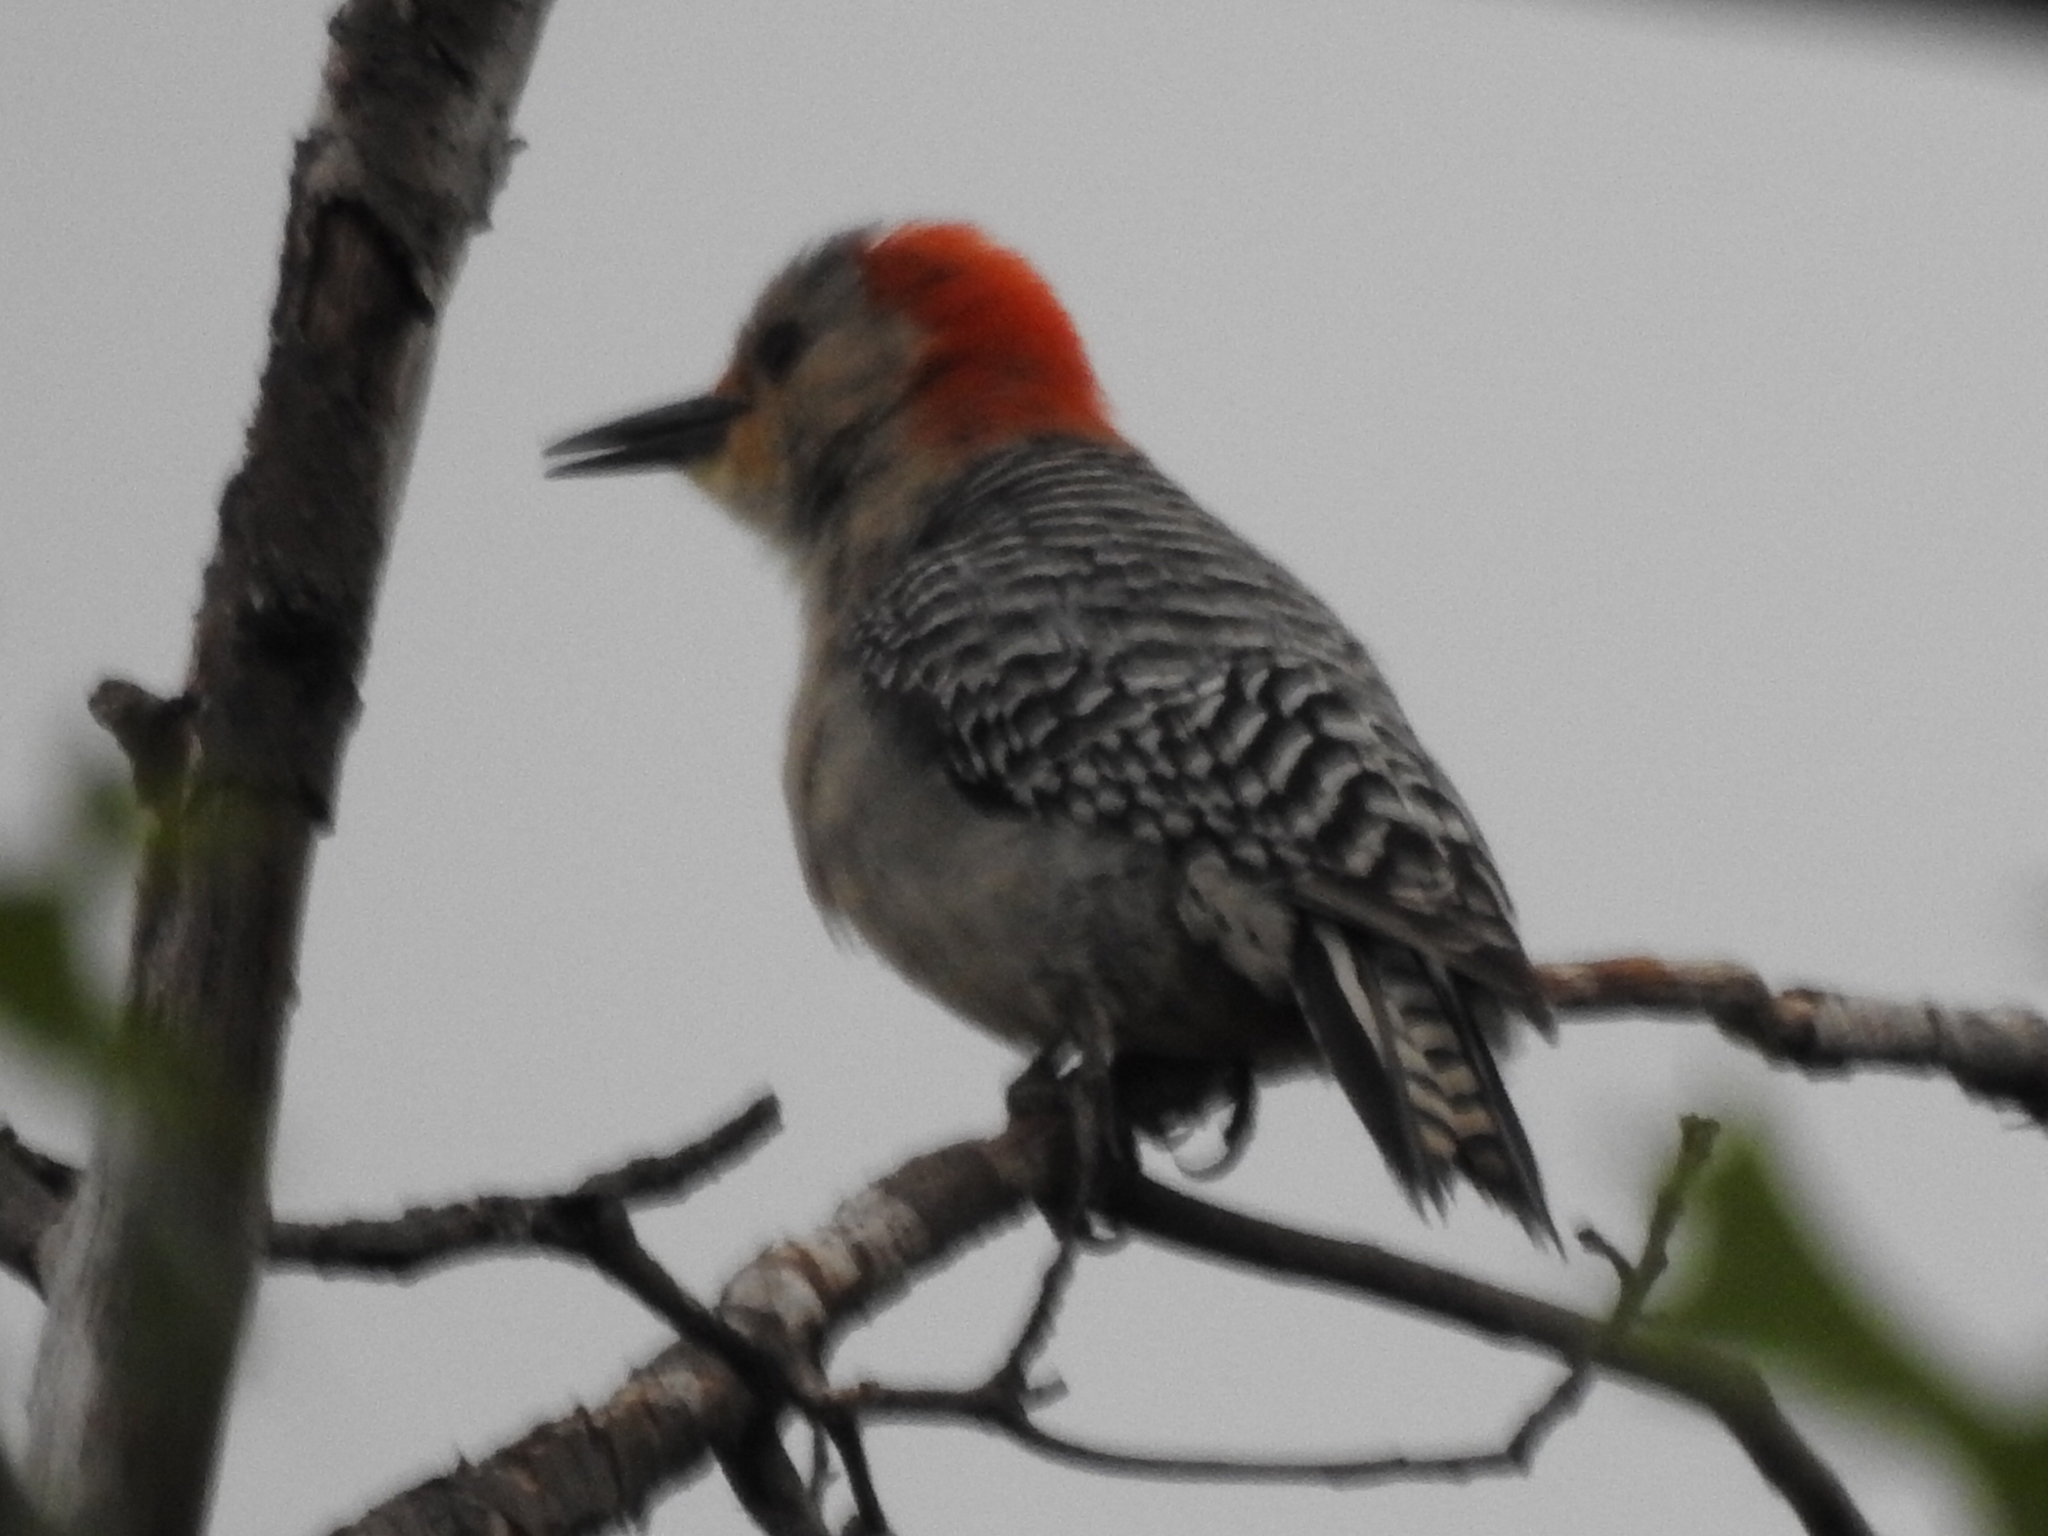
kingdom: Animalia
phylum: Chordata
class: Aves
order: Piciformes
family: Picidae
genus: Melanerpes
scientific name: Melanerpes carolinus
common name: Red-bellied woodpecker
